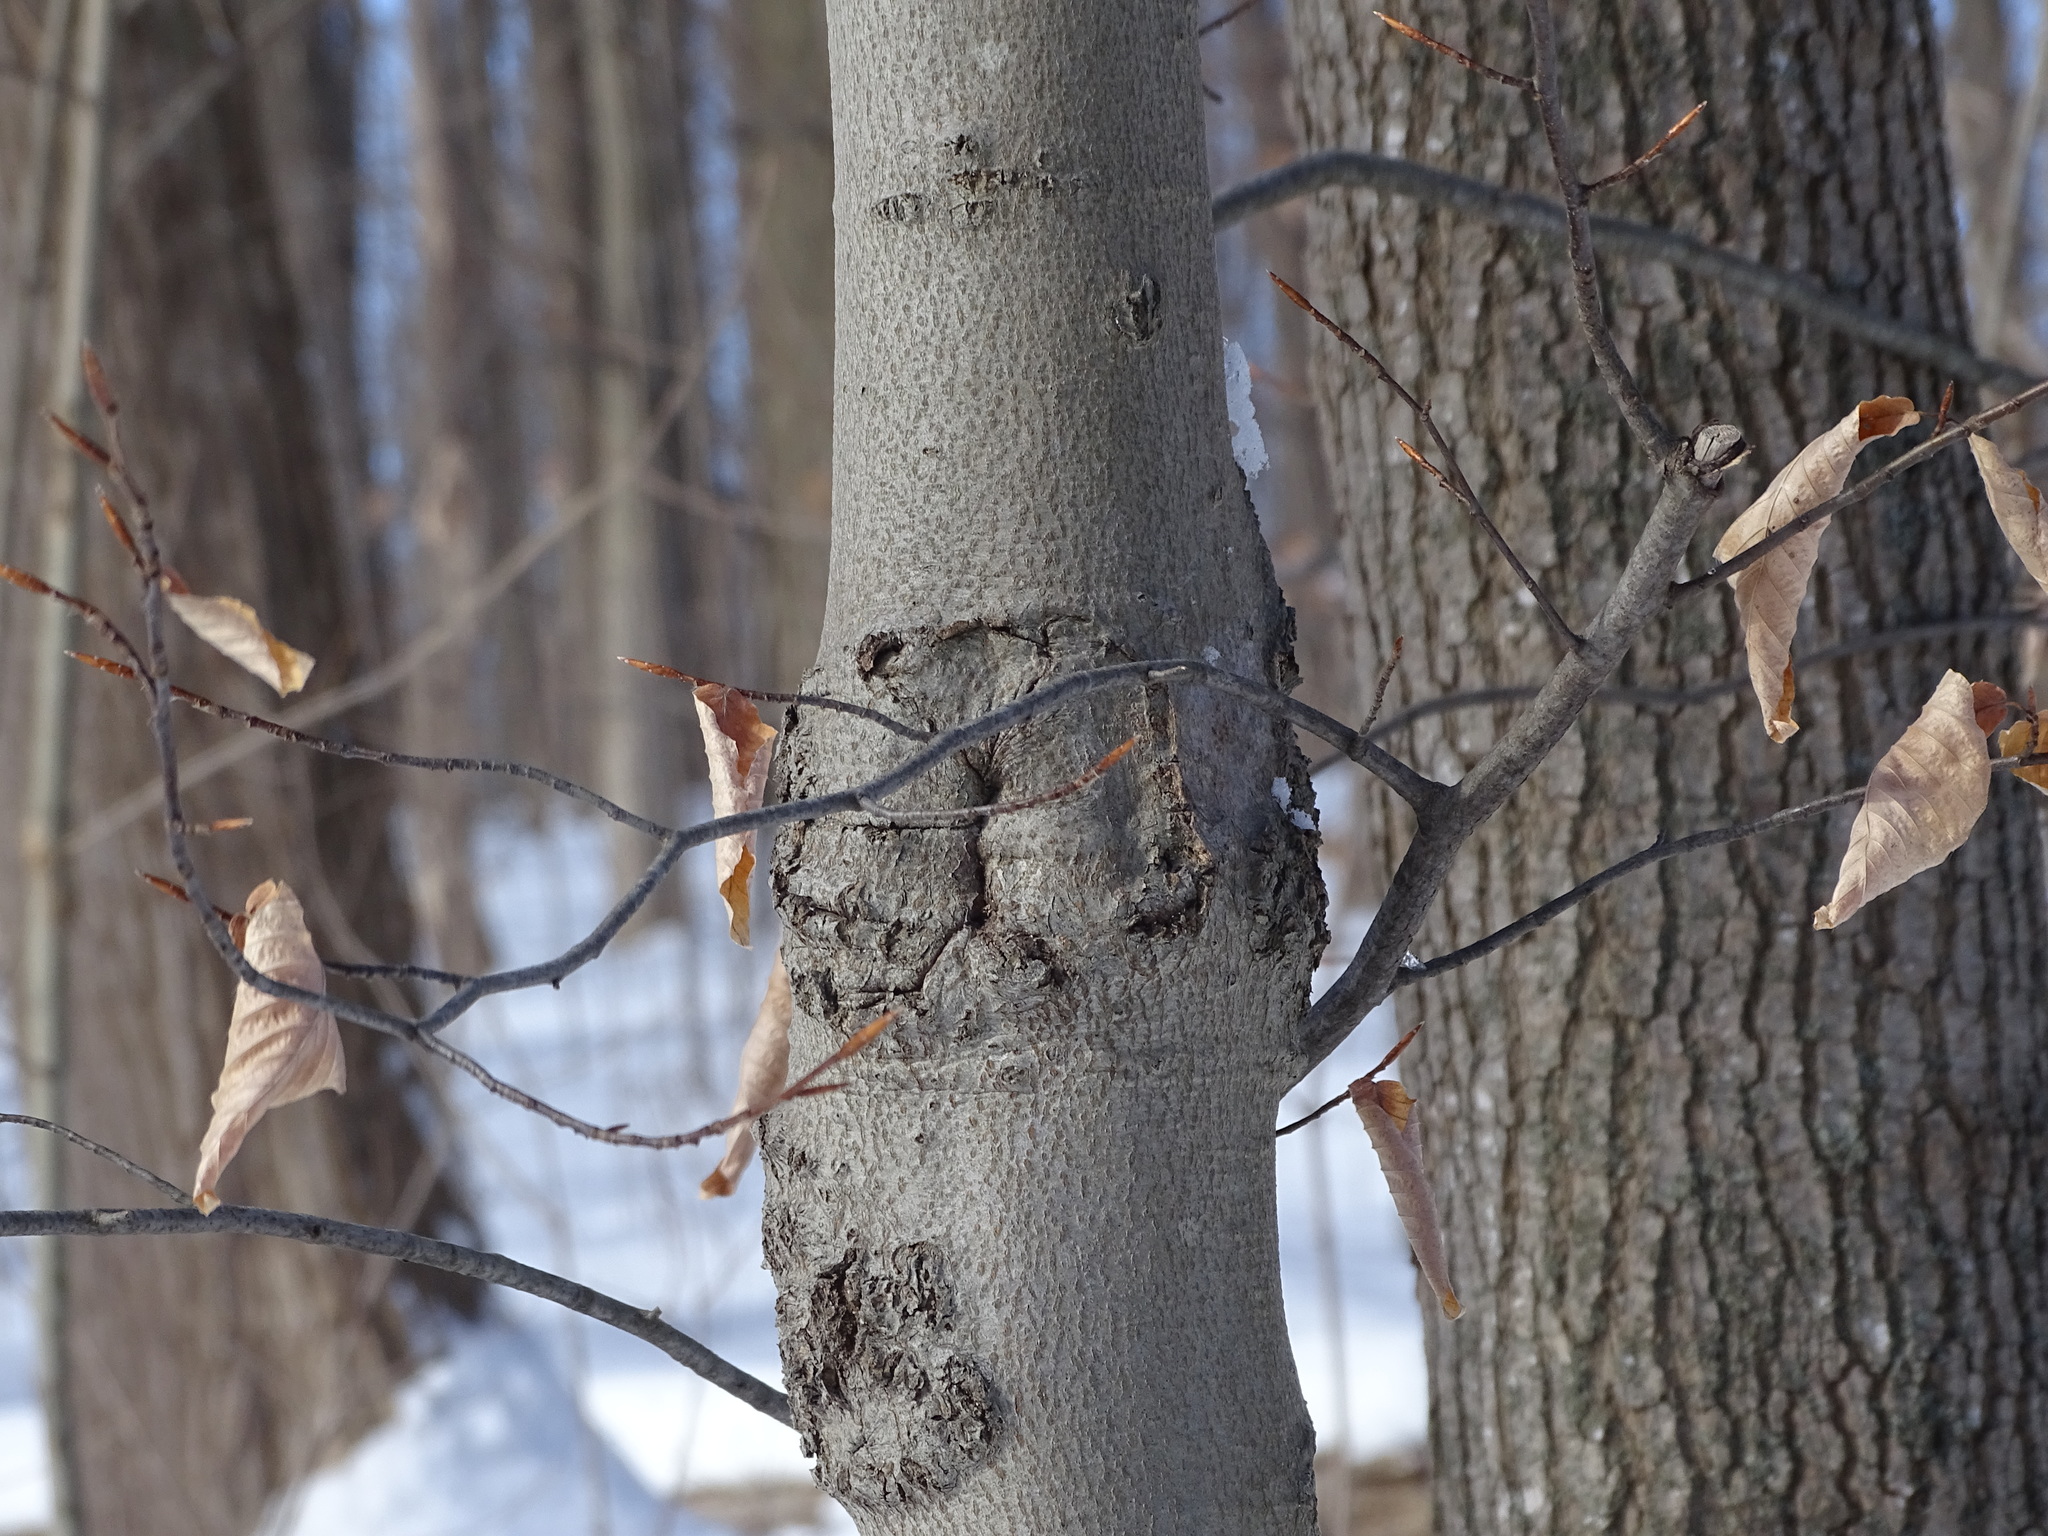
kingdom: Plantae
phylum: Tracheophyta
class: Magnoliopsida
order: Fagales
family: Fagaceae
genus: Fagus
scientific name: Fagus grandifolia
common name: American beech
